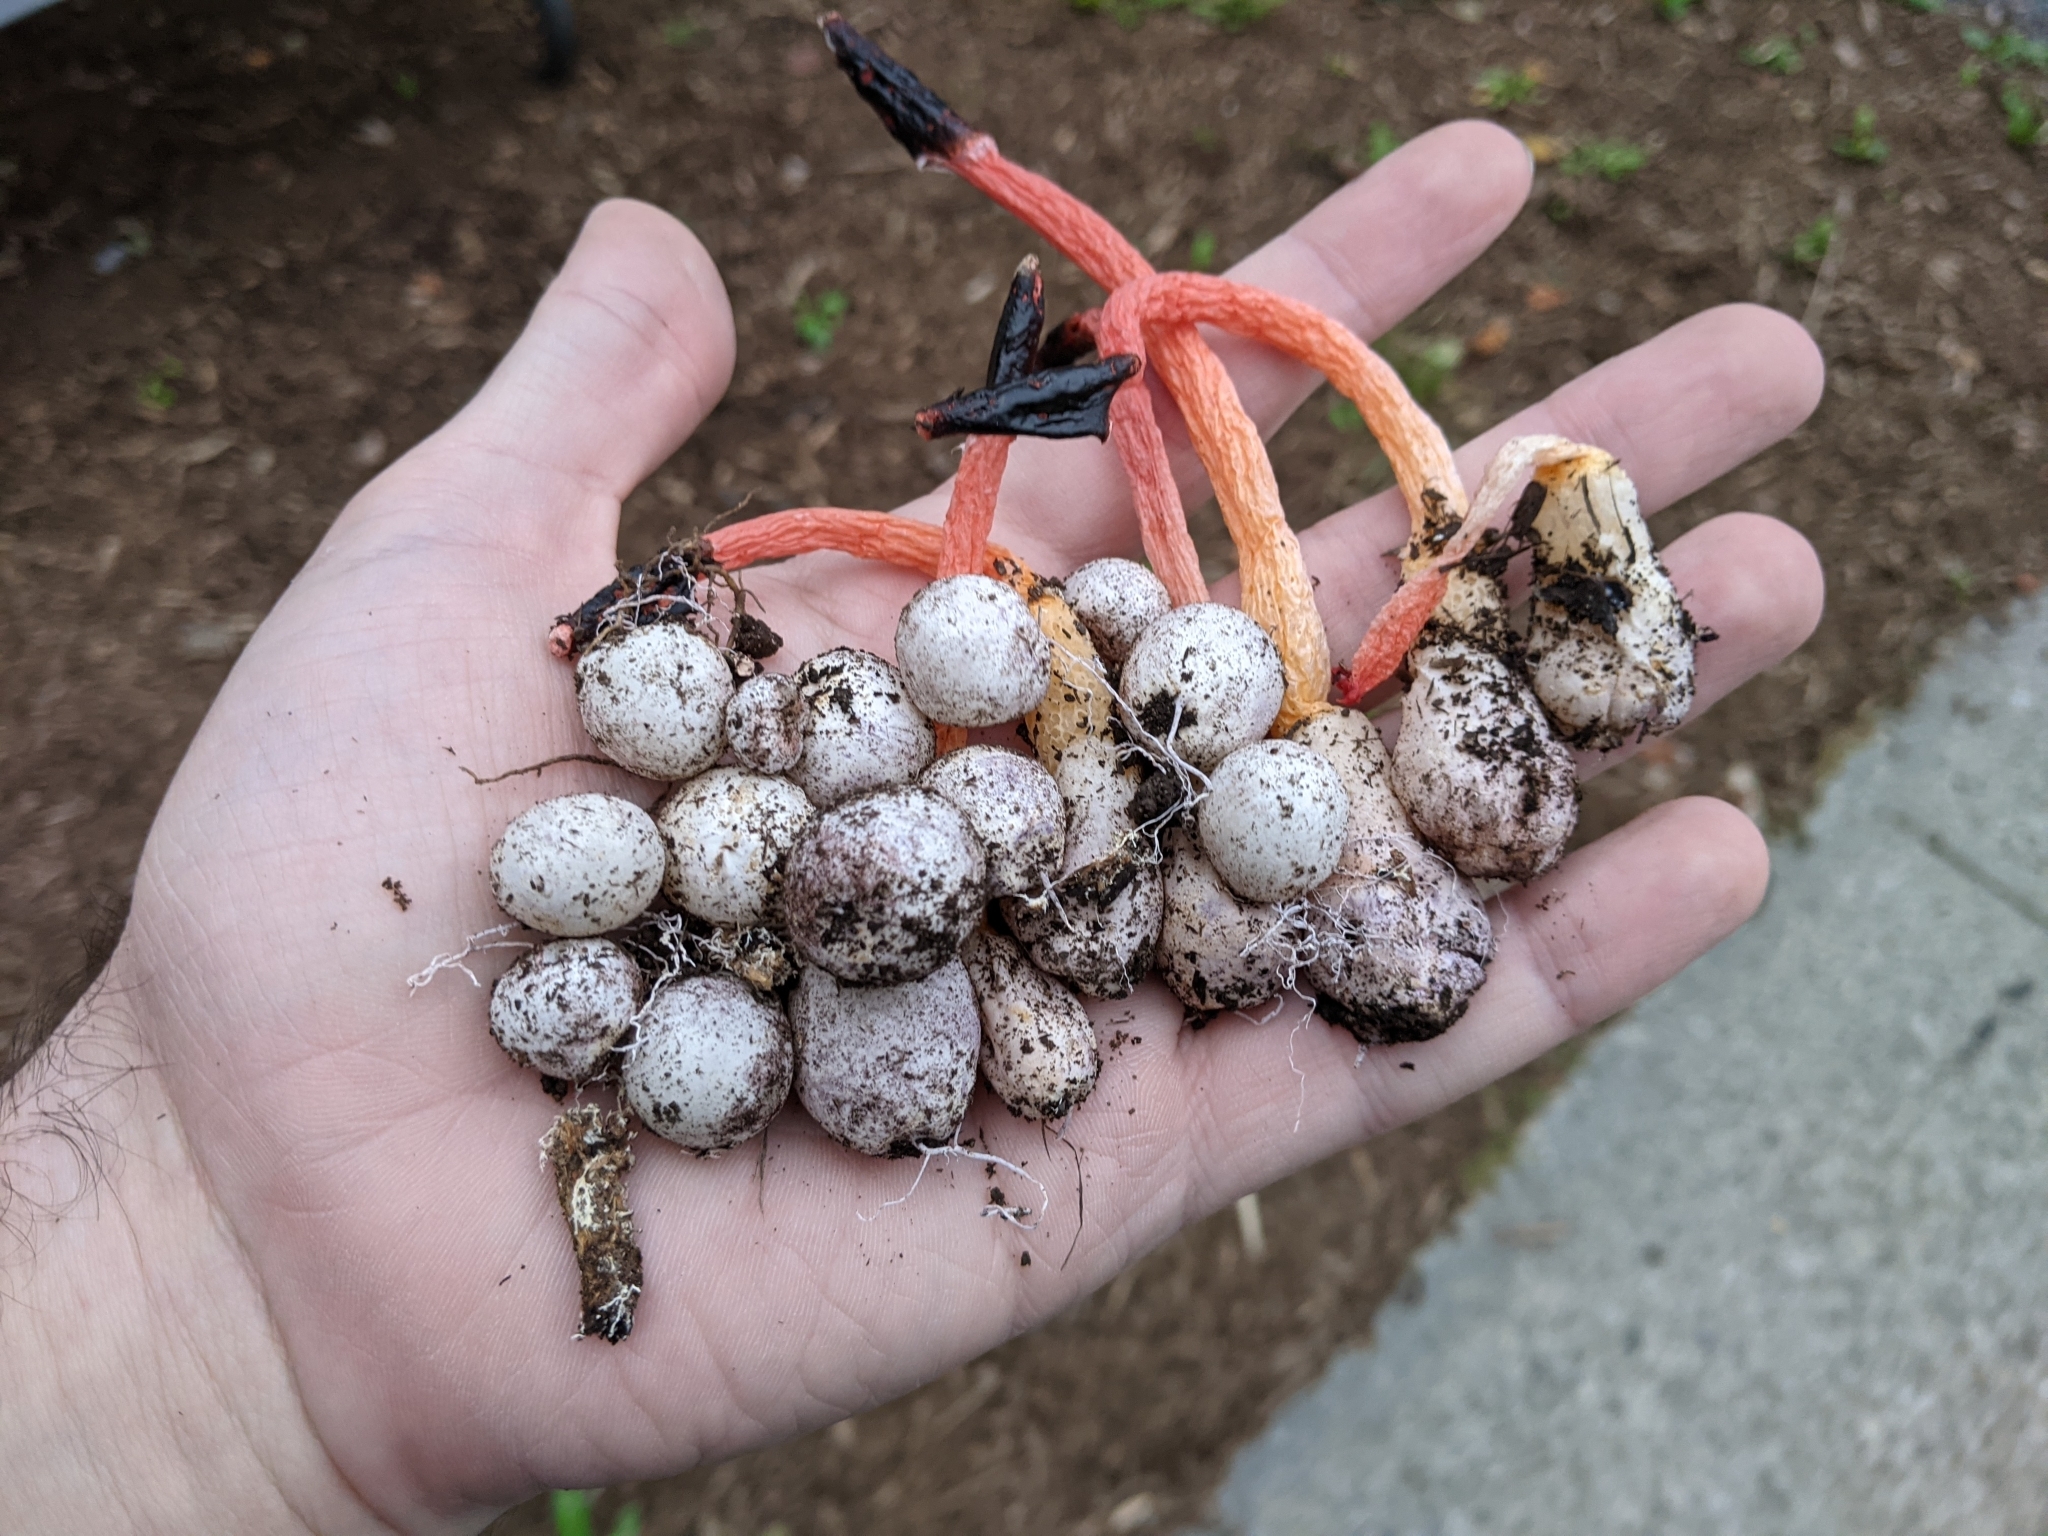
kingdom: Fungi
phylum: Basidiomycota
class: Agaricomycetes
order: Phallales
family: Phallaceae
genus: Phallus
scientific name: Phallus rugulosus
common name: Wrinkly stinkhorn
